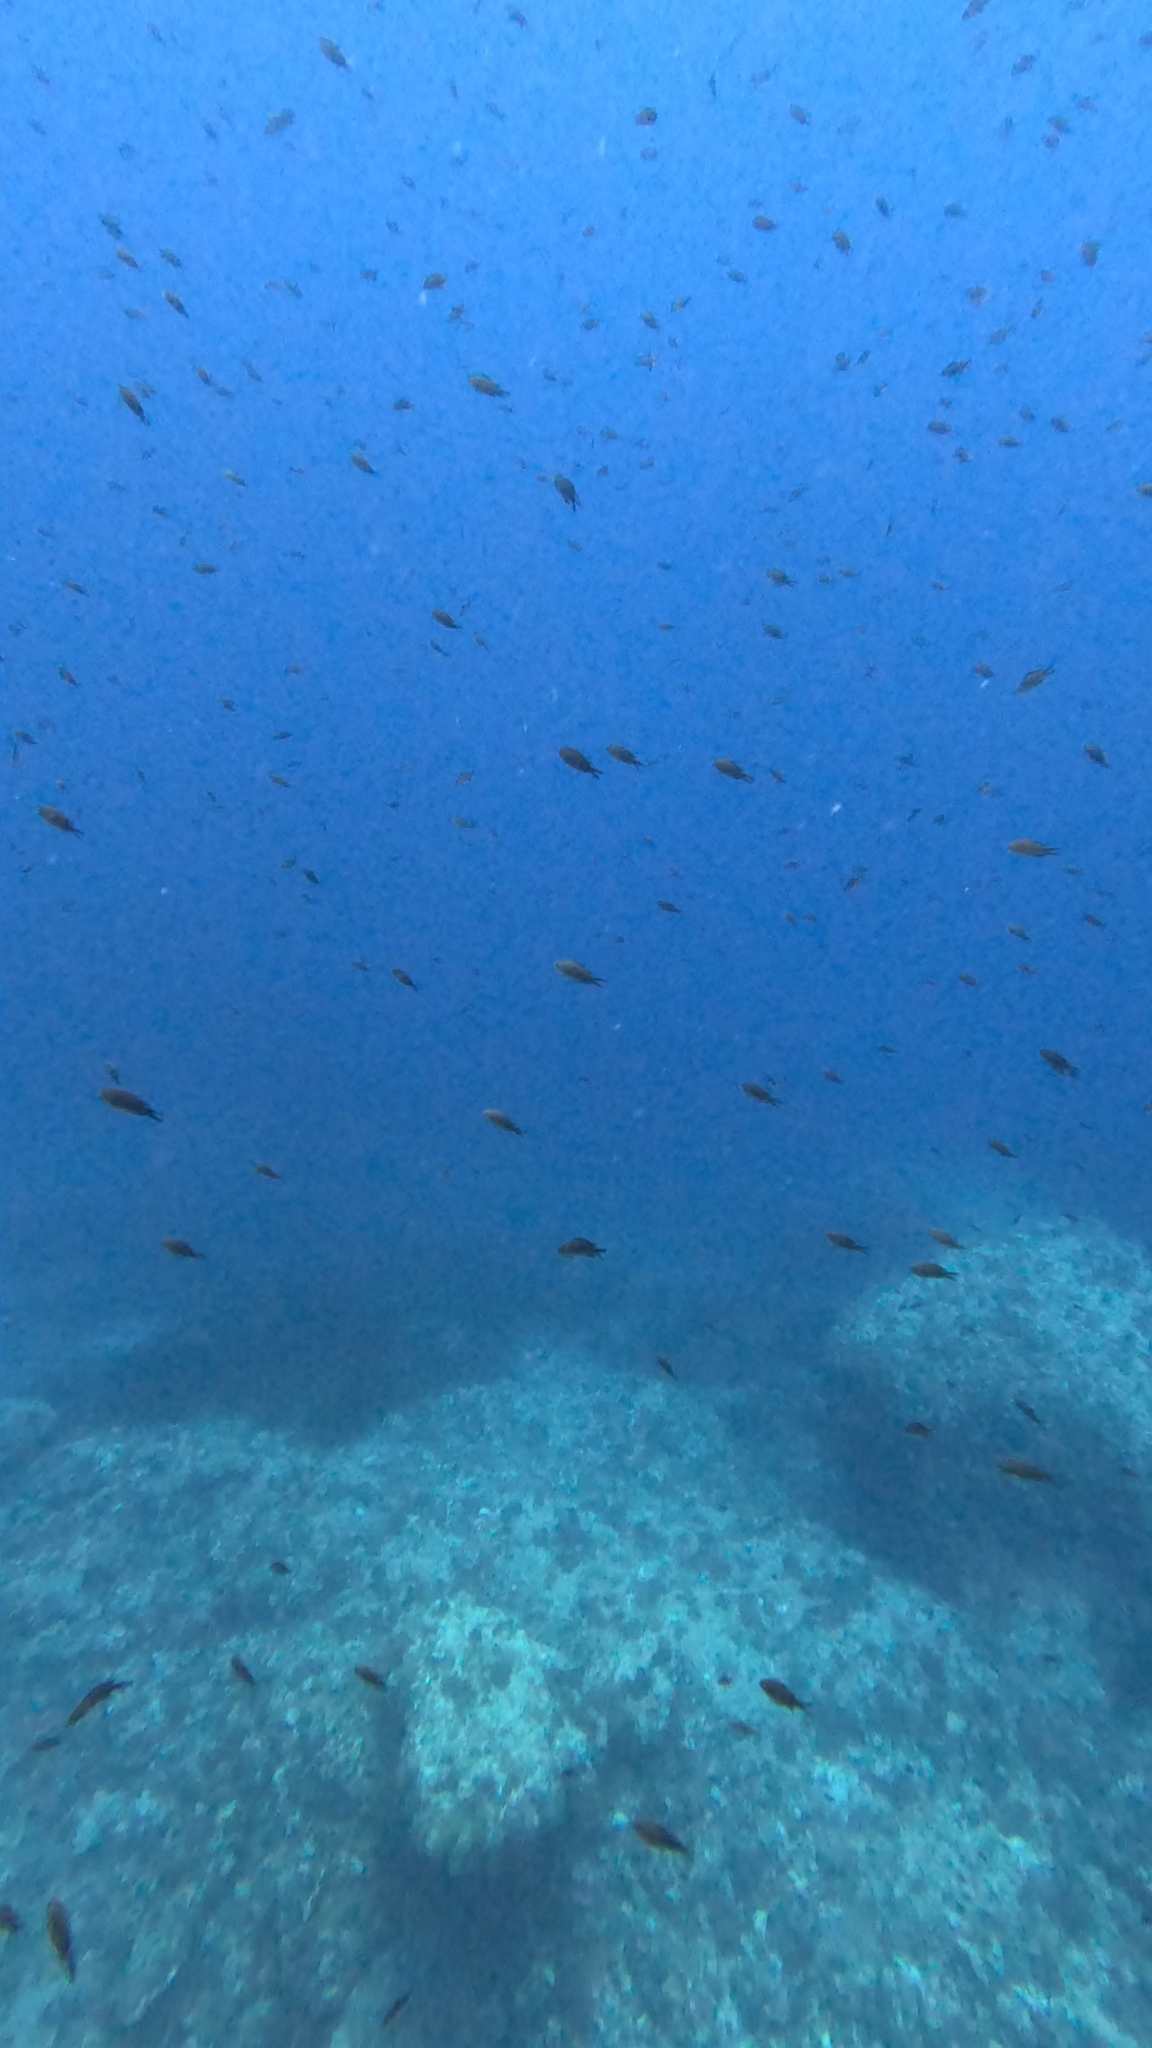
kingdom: Animalia
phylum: Chordata
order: Perciformes
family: Pomacentridae
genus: Chromis
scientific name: Chromis chromis
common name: Damselfish
